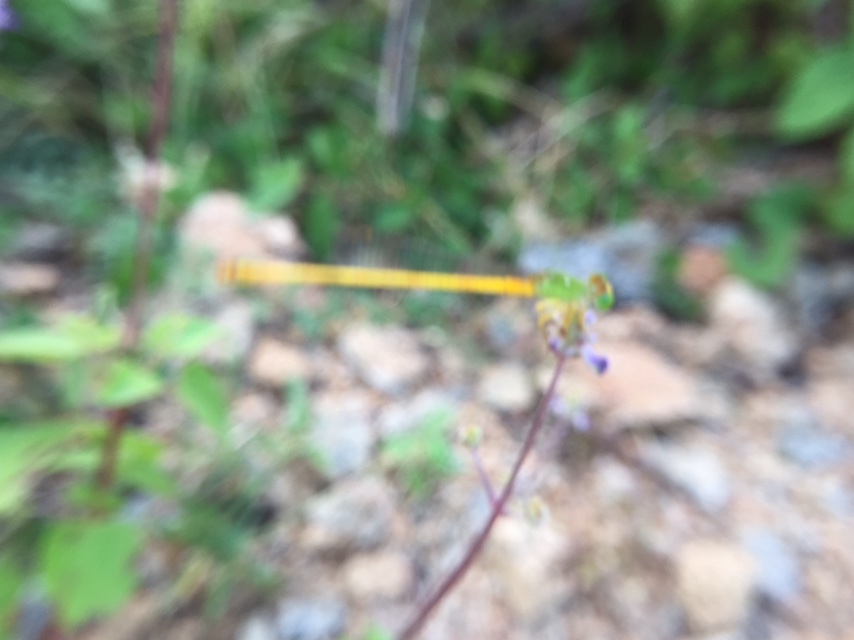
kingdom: Animalia
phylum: Arthropoda
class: Insecta
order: Odonata
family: Coenagrionidae
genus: Ceriagrion
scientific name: Ceriagrion coromandelianum
